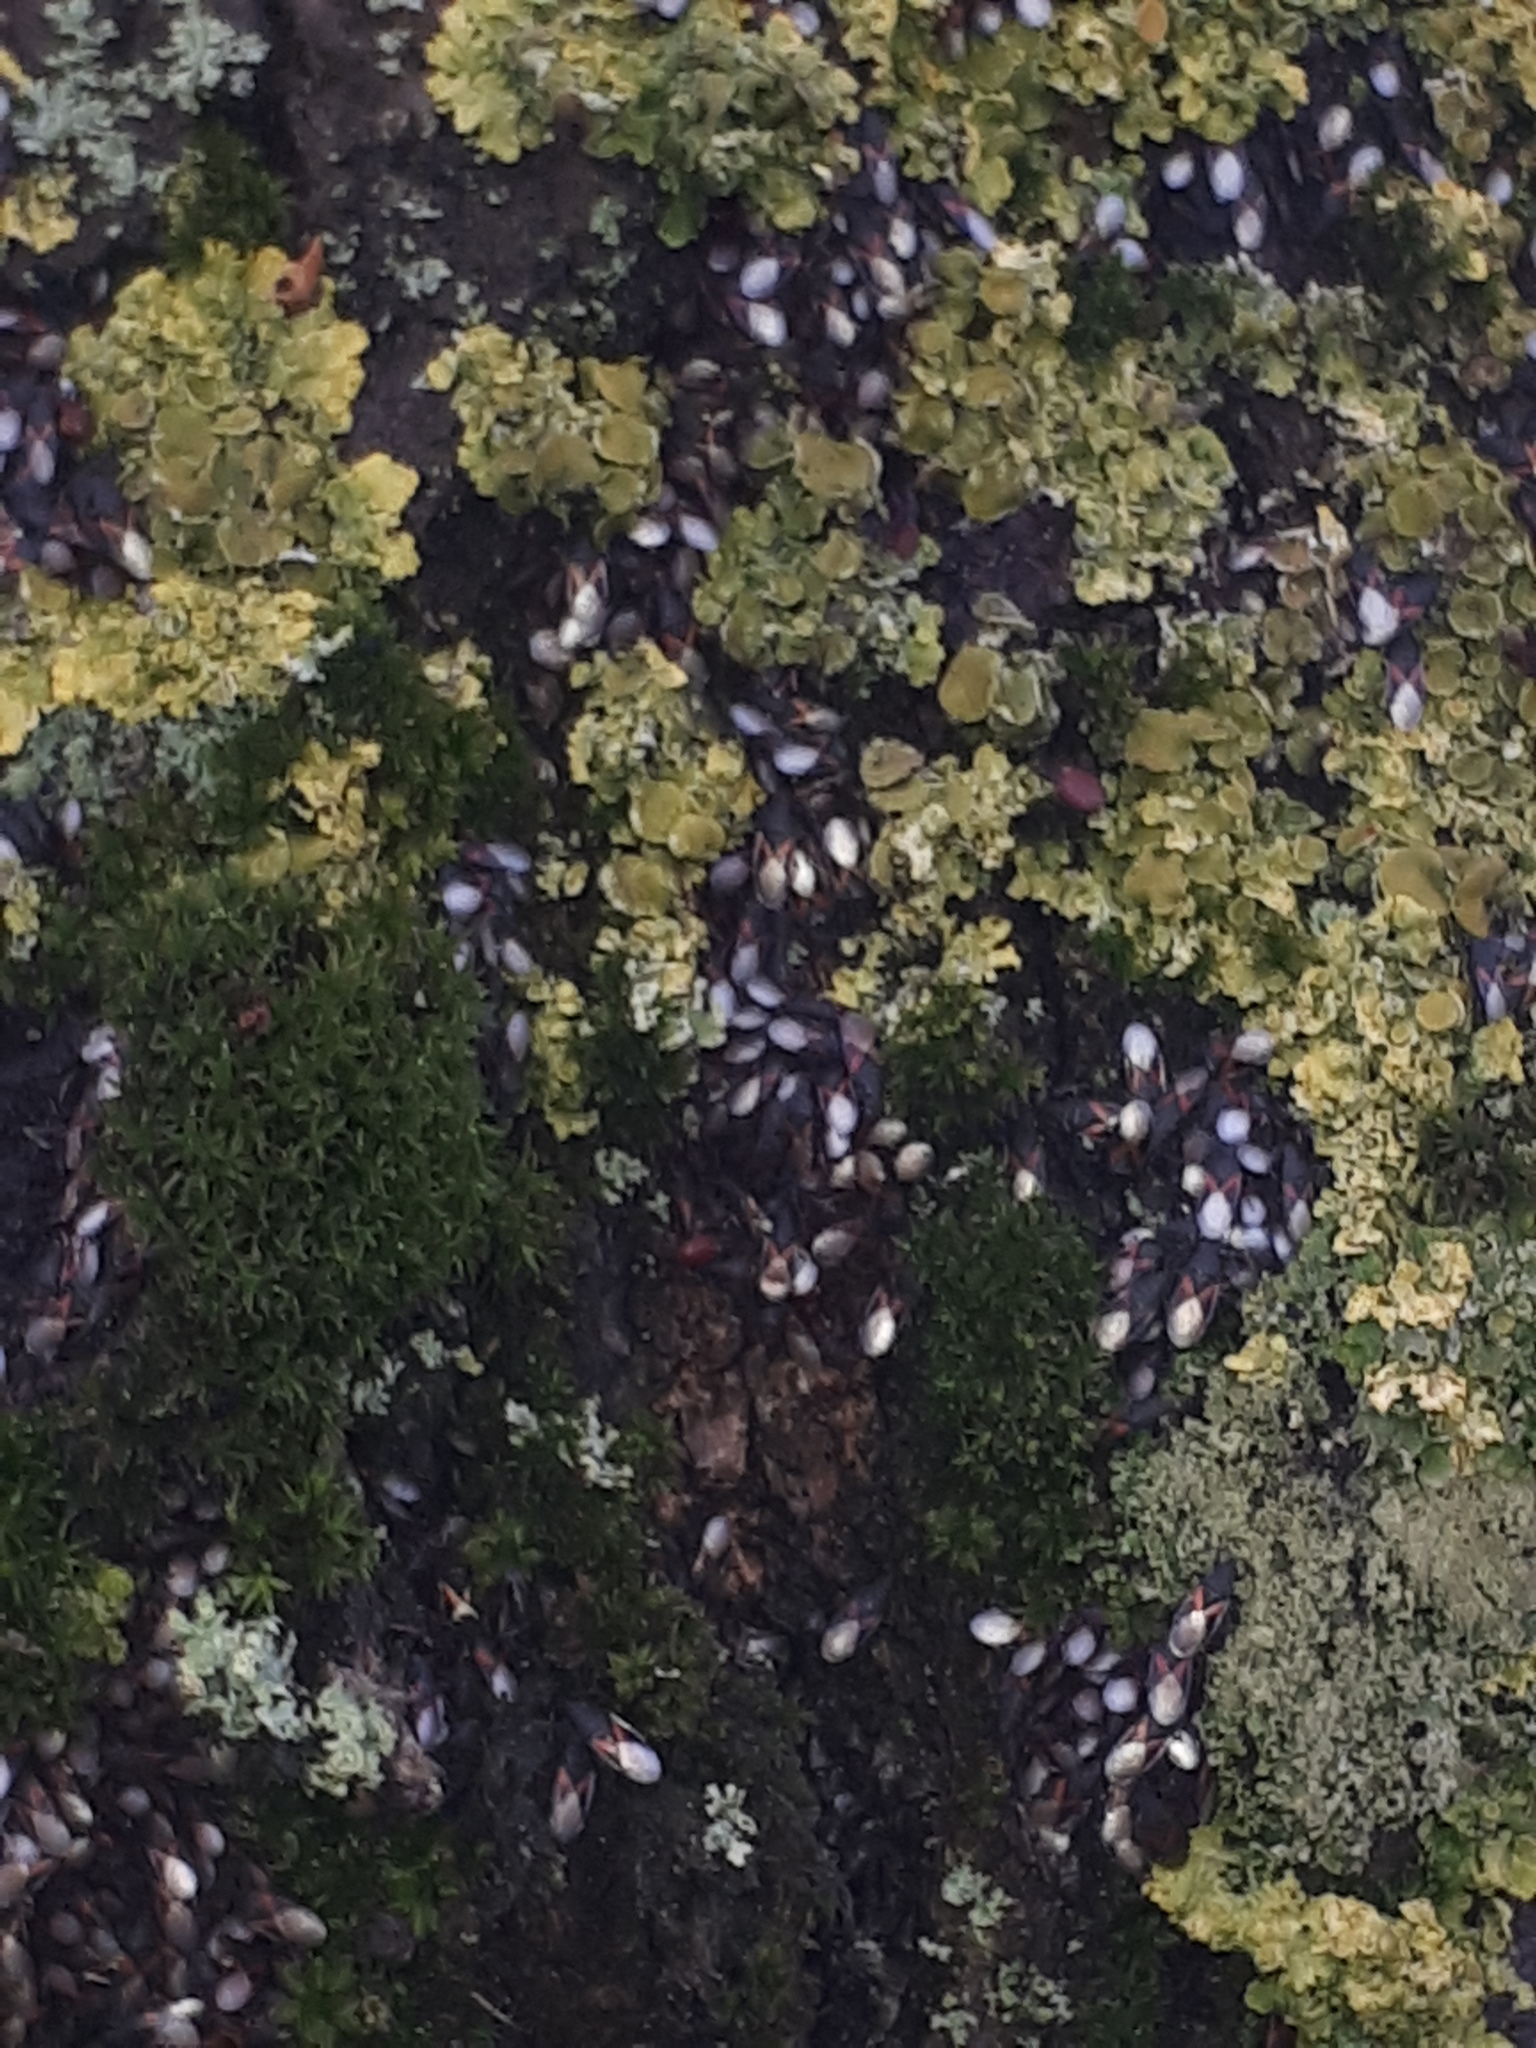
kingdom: Animalia
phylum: Arthropoda
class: Insecta
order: Hemiptera
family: Oxycarenidae
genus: Oxycarenus
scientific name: Oxycarenus lavaterae
